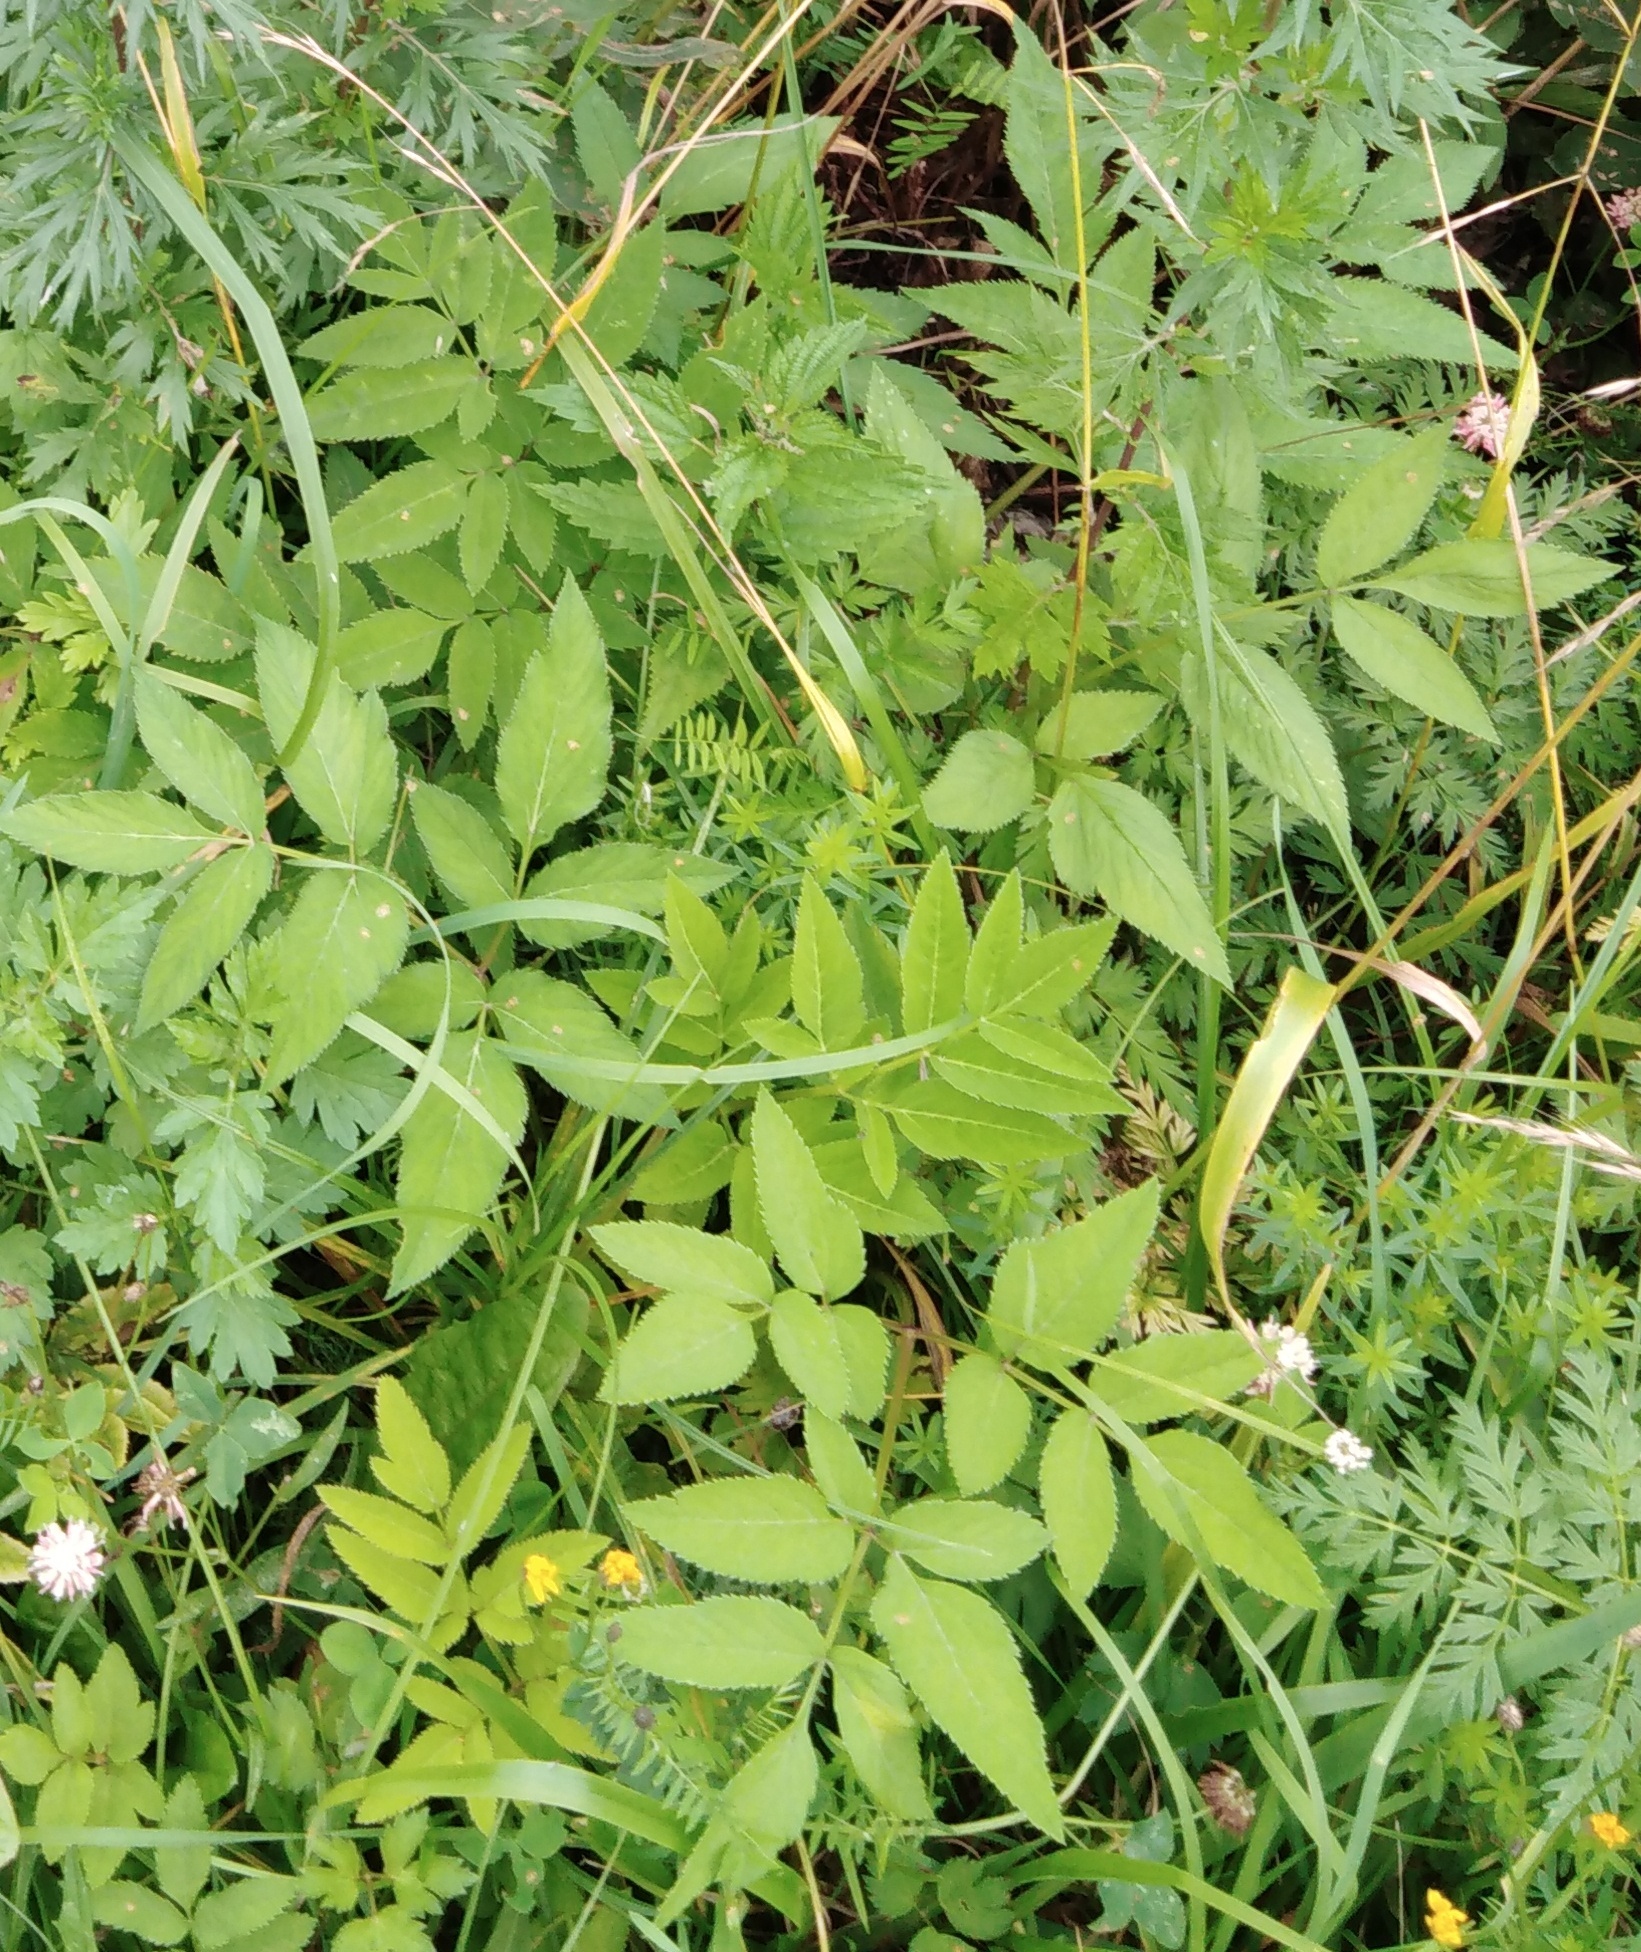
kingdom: Plantae
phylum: Tracheophyta
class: Magnoliopsida
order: Apiales
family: Apiaceae
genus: Angelica
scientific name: Angelica sylvestris
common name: Wild angelica
